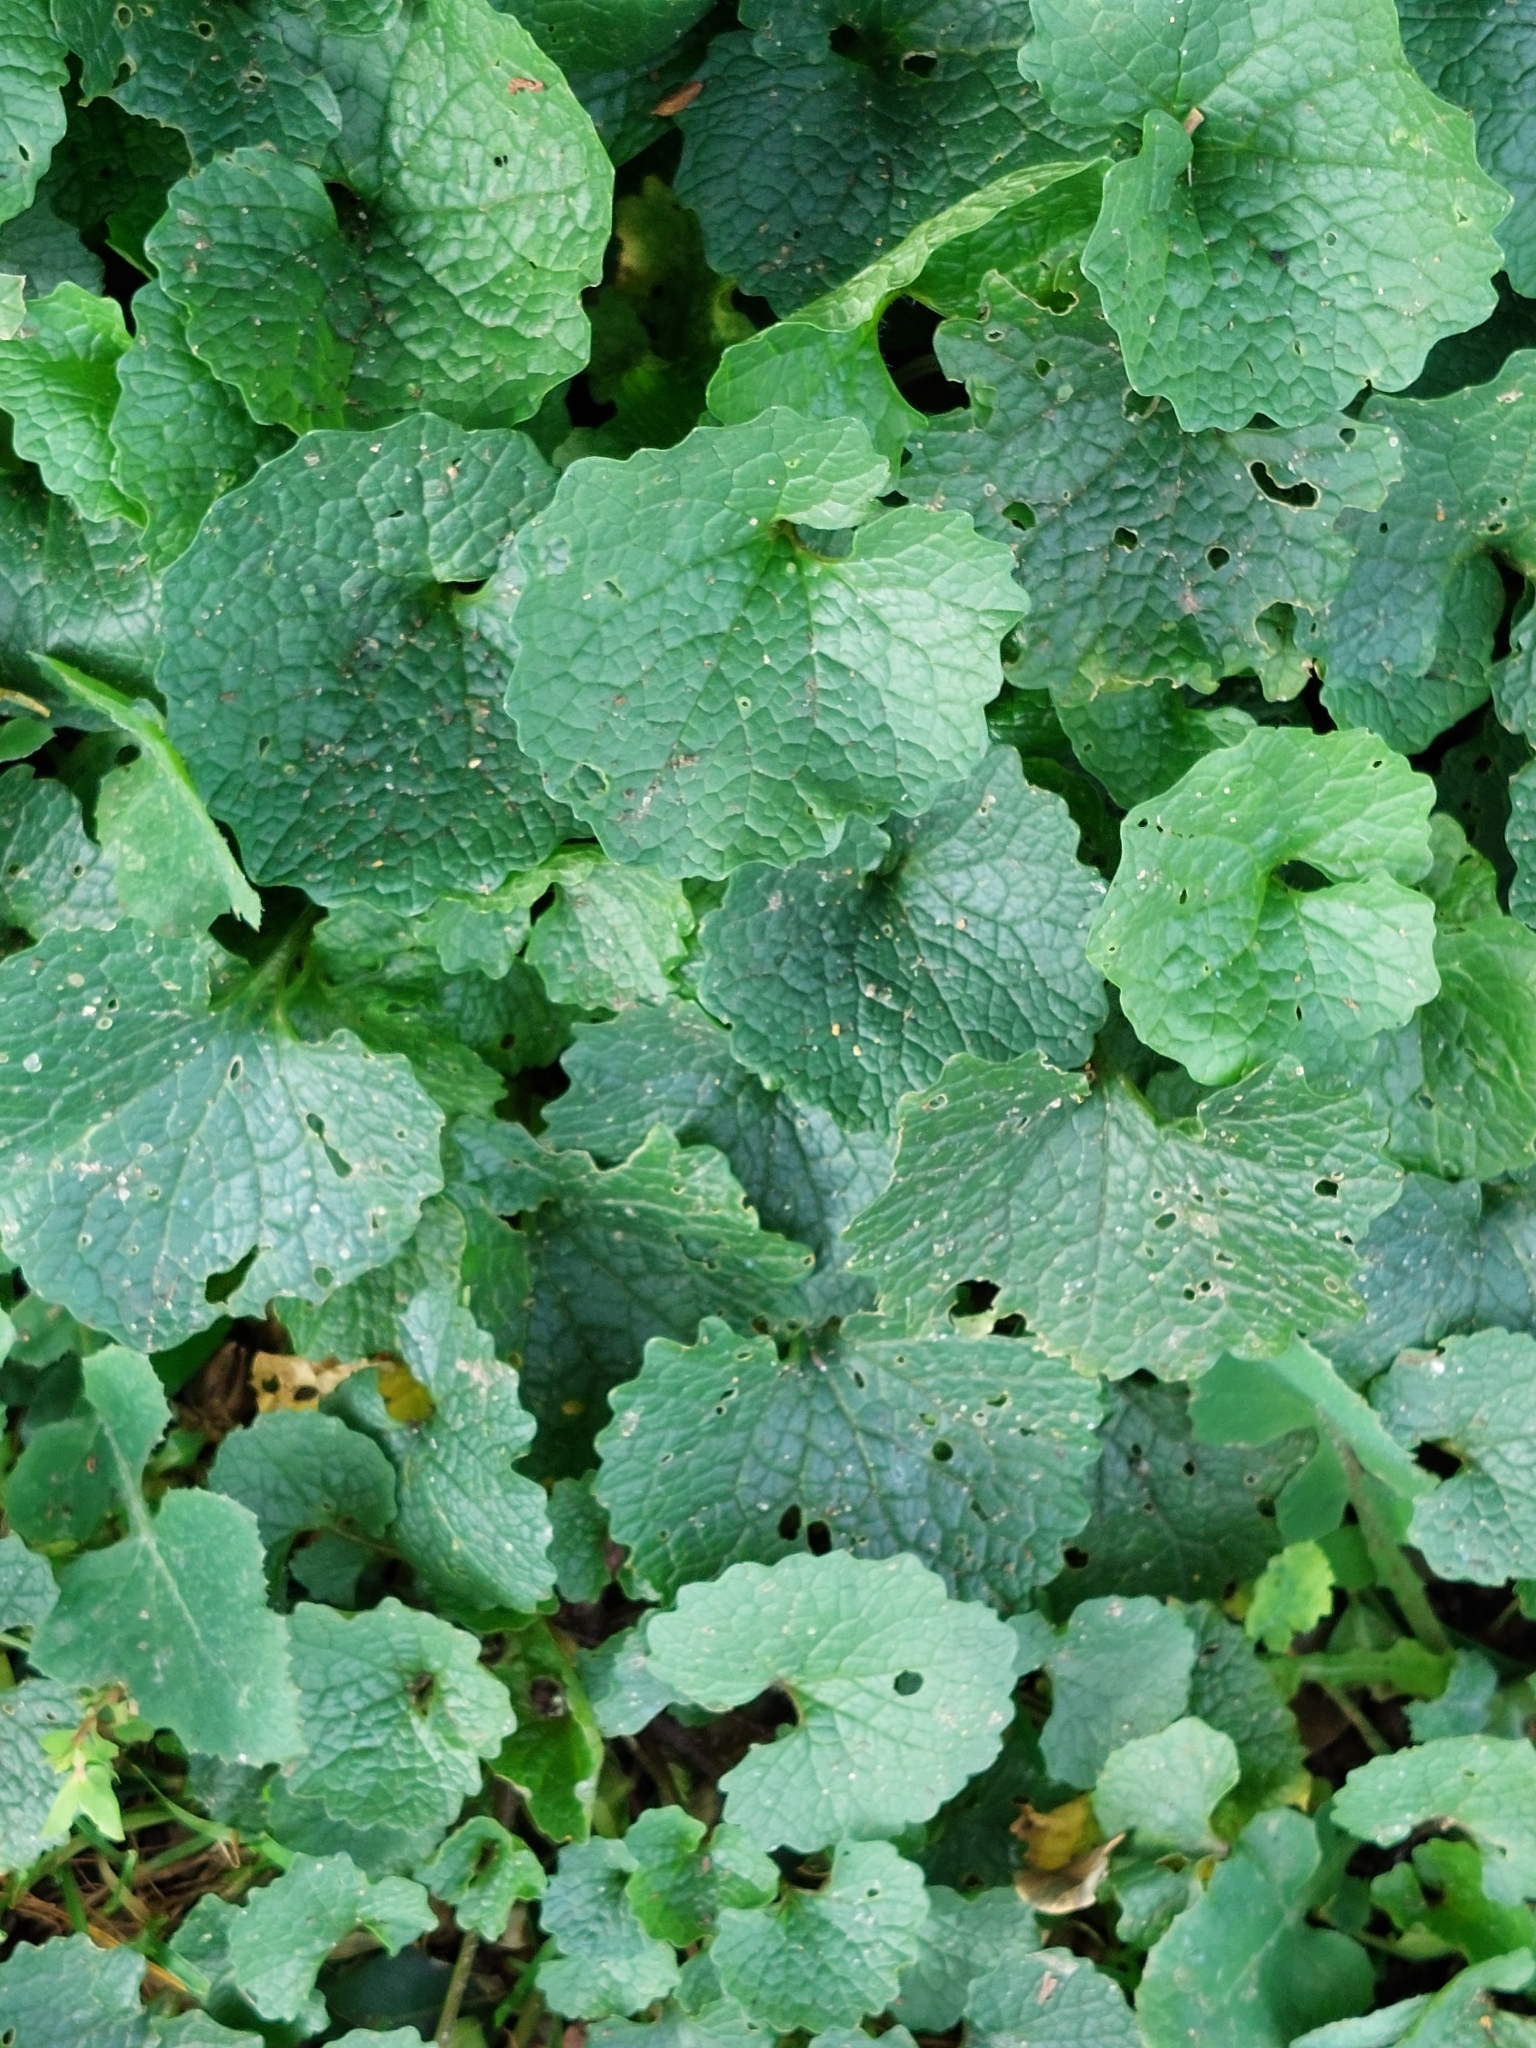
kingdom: Plantae
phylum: Tracheophyta
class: Magnoliopsida
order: Brassicales
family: Brassicaceae
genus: Alliaria
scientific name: Alliaria petiolata
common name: Garlic mustard
